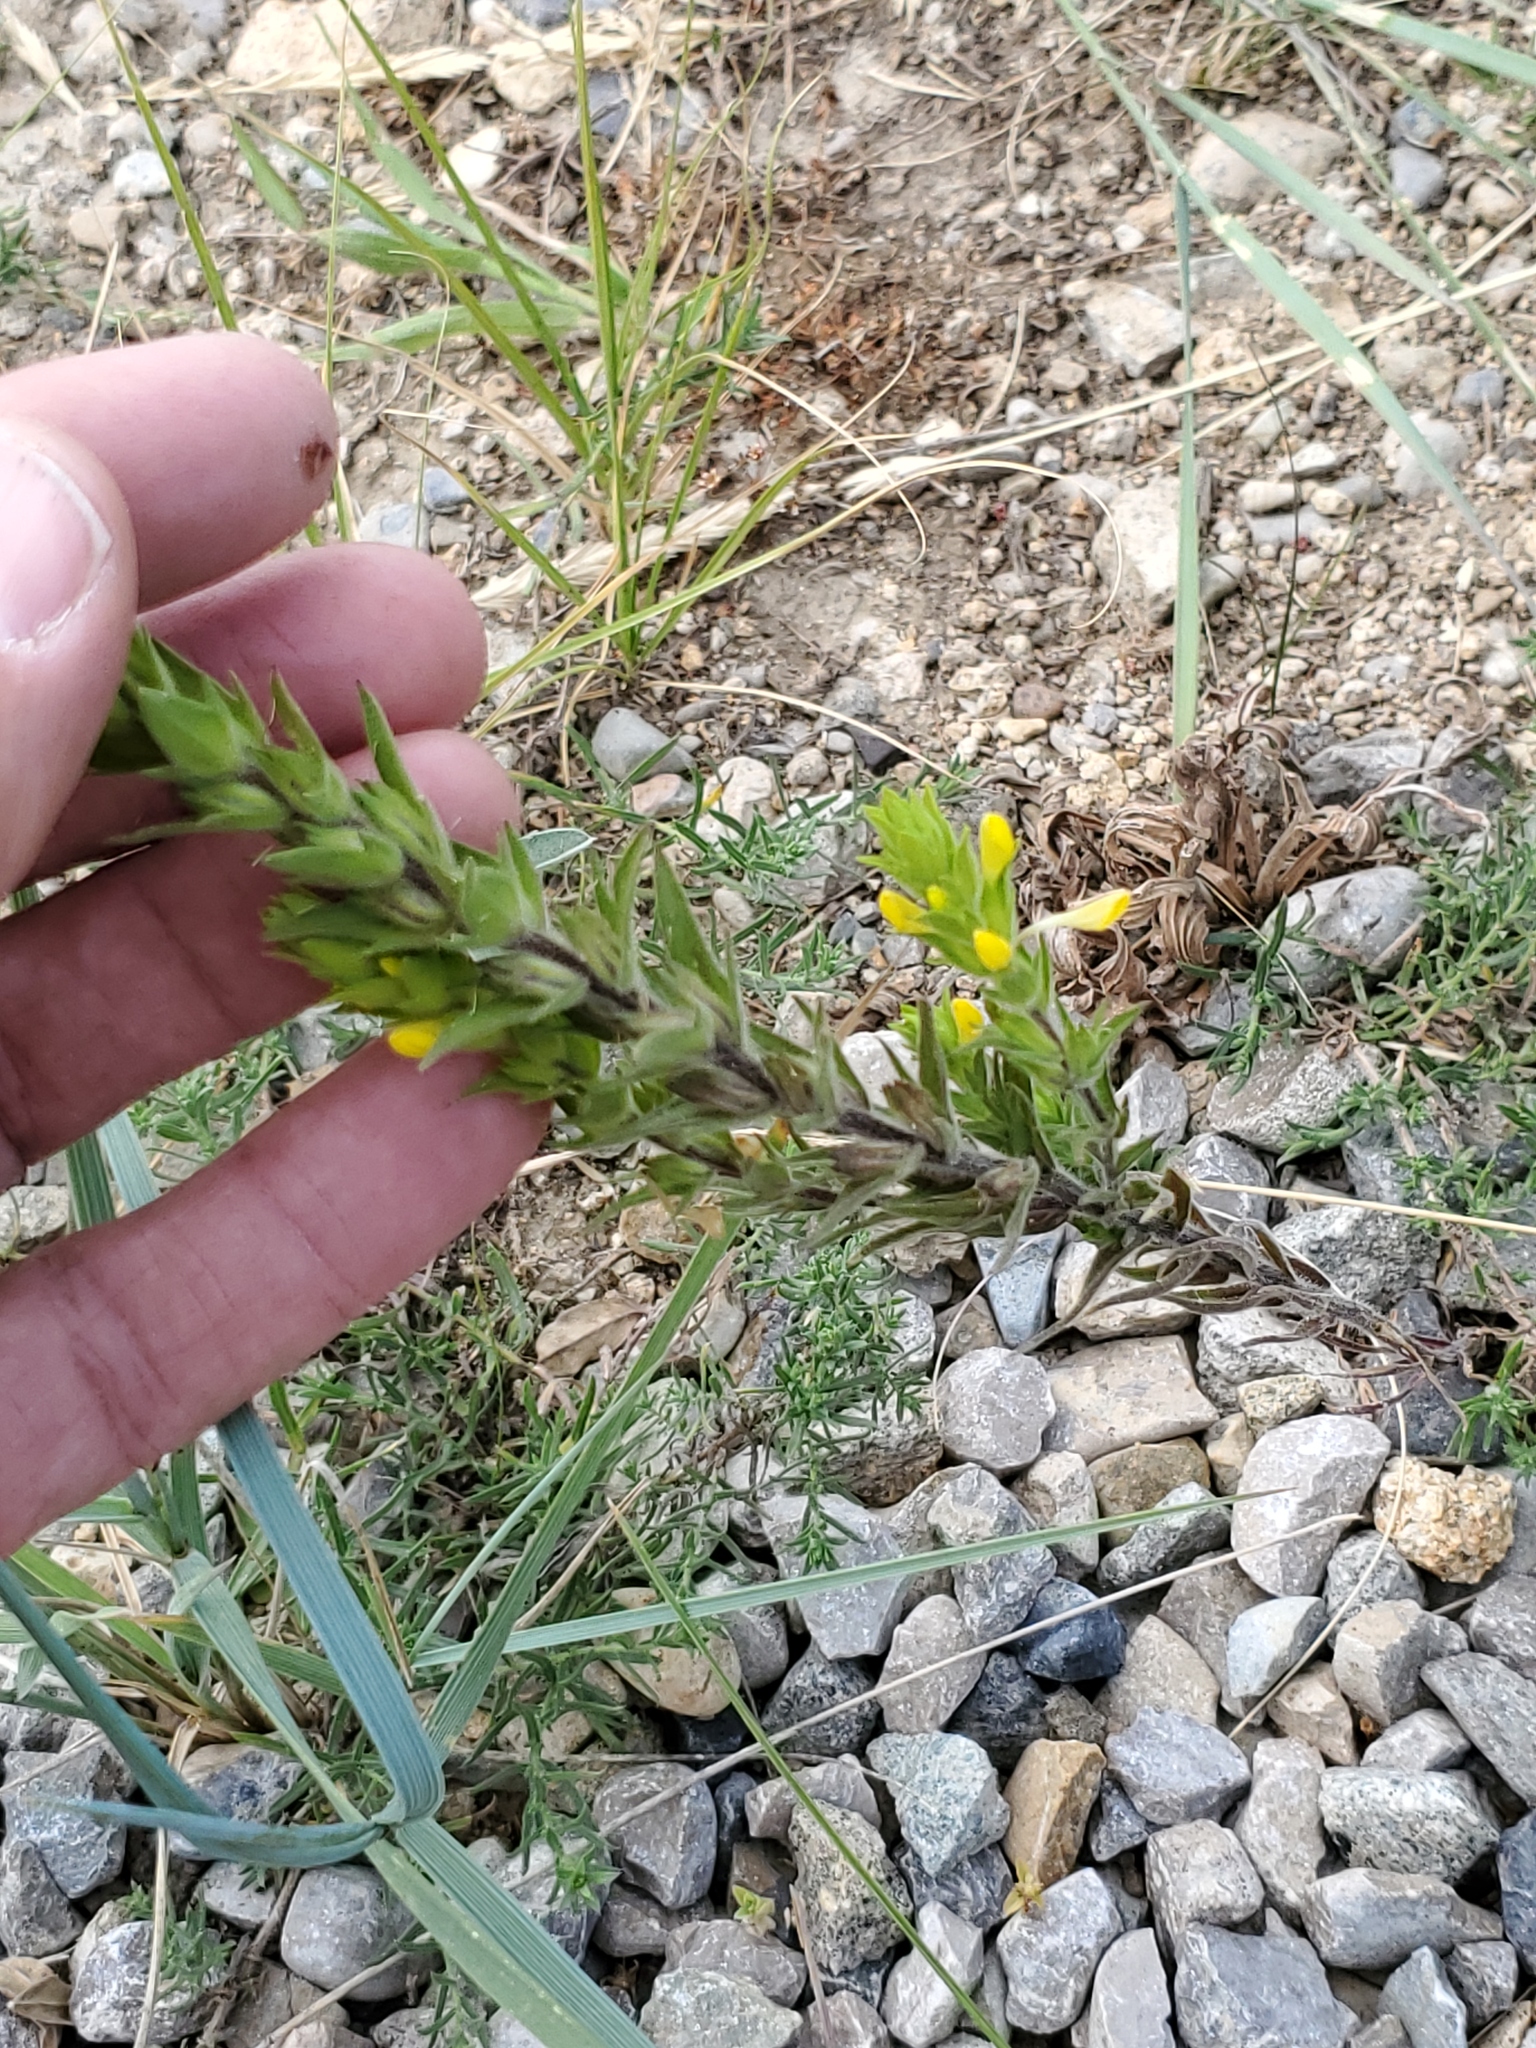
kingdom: Plantae
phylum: Tracheophyta
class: Magnoliopsida
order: Lamiales
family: Orobanchaceae
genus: Orthocarpus
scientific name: Orthocarpus luteus
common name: Golden-tongue owl's-clover
